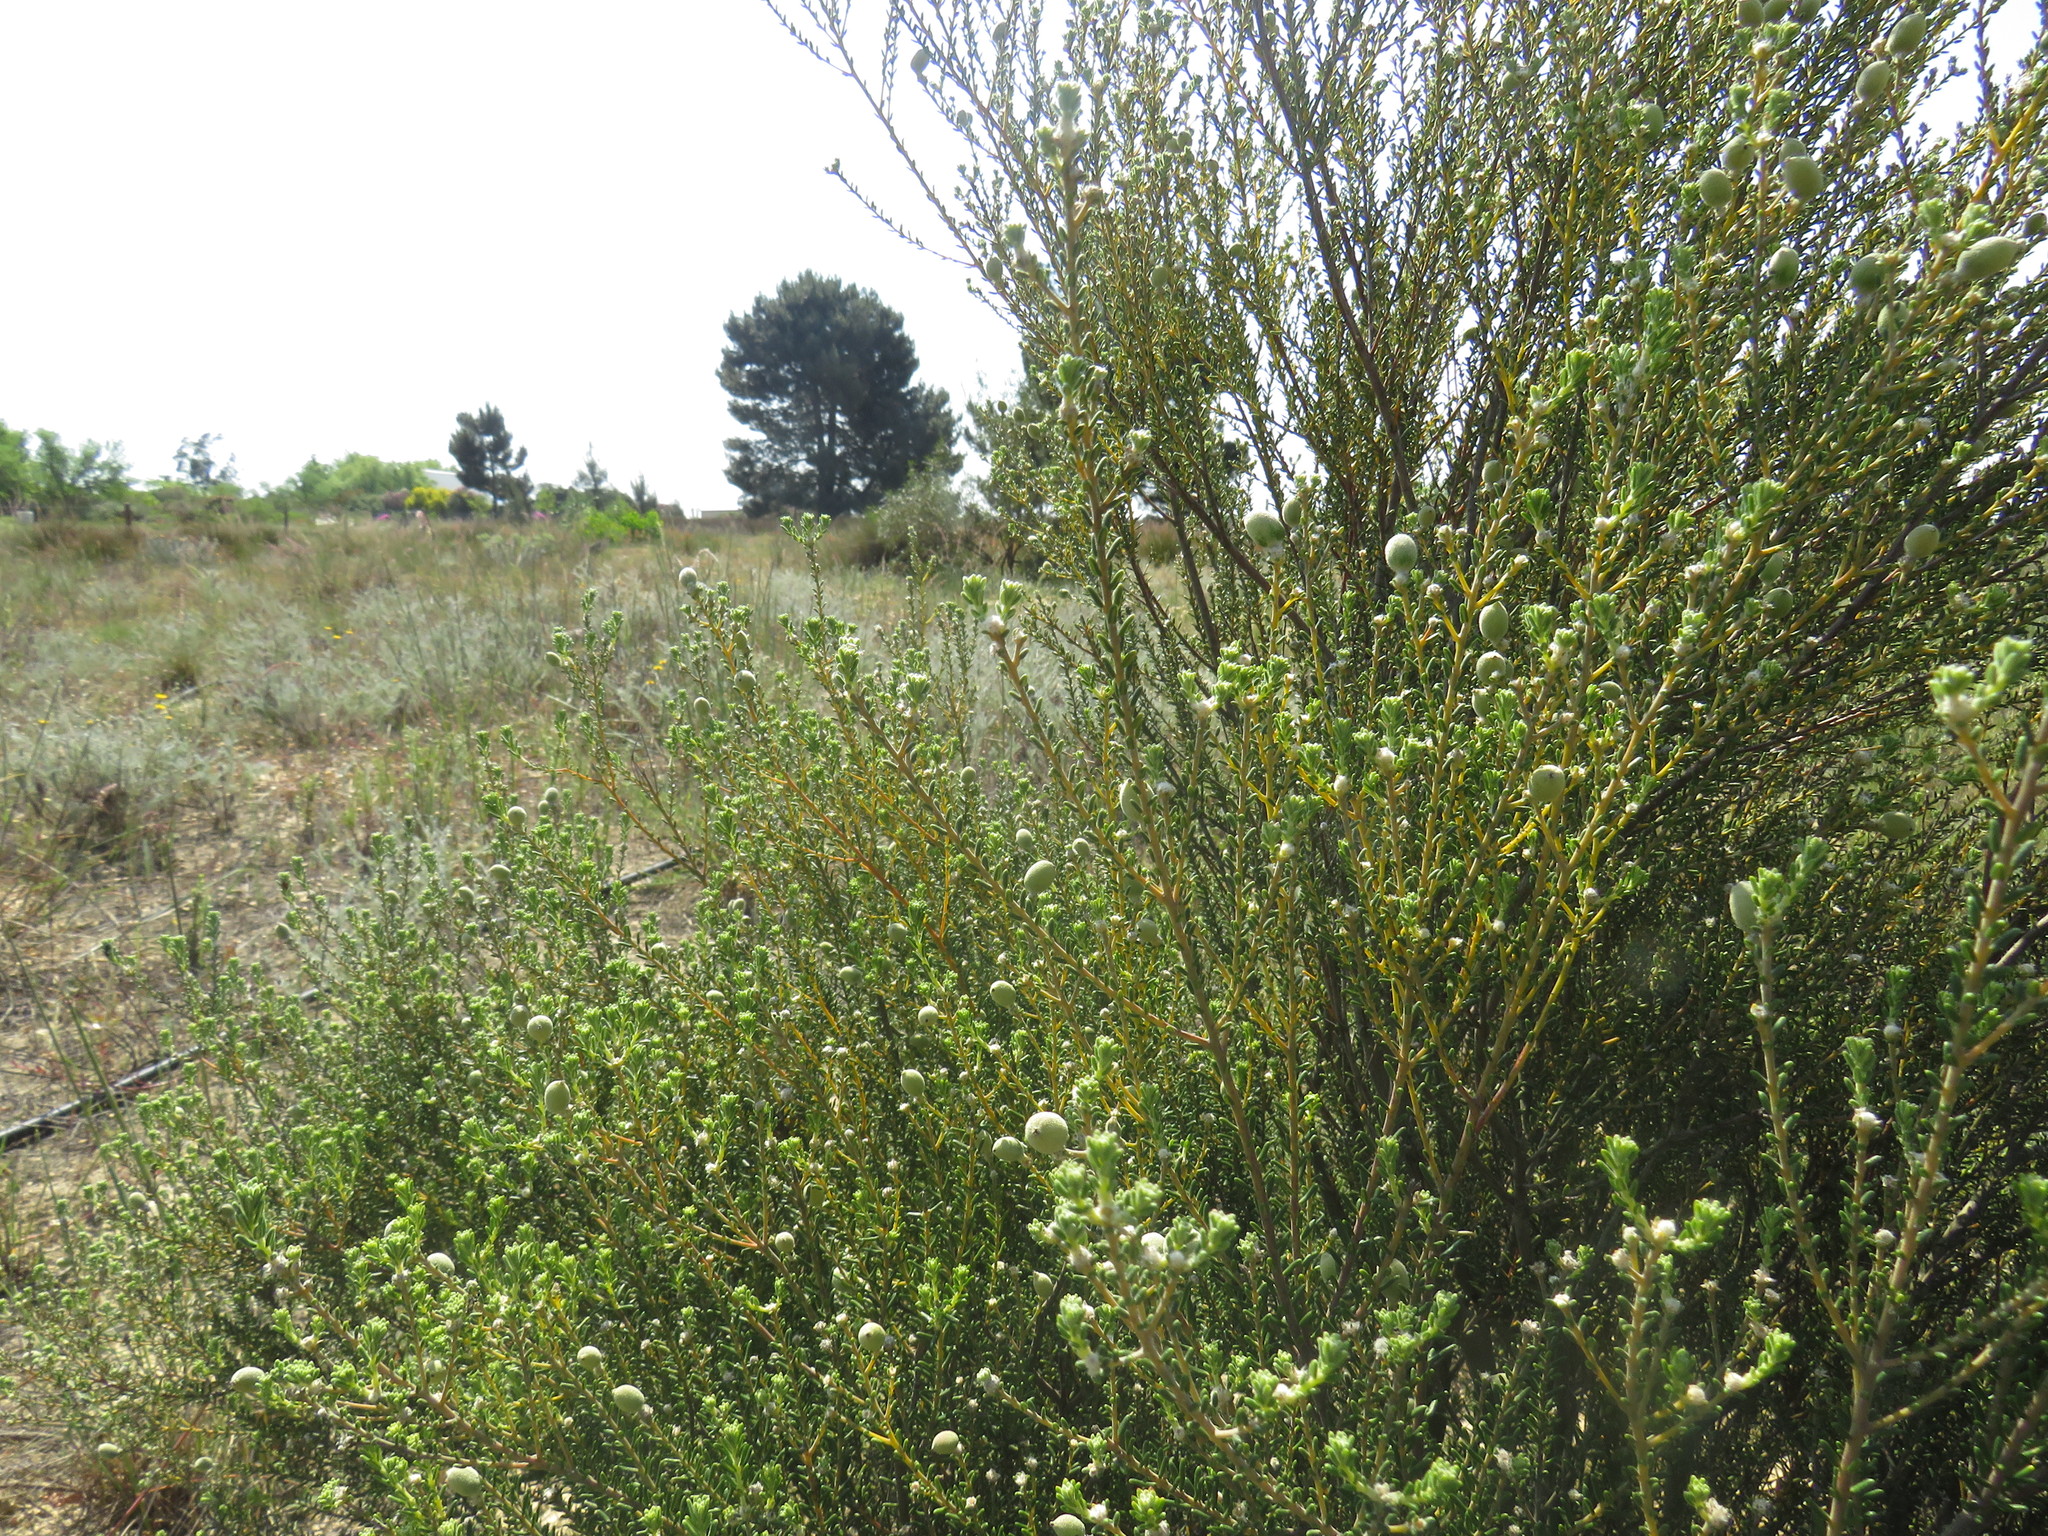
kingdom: Plantae
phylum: Tracheophyta
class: Magnoliopsida
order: Rosales
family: Rhamnaceae
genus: Phylica
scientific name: Phylica cephalantha
